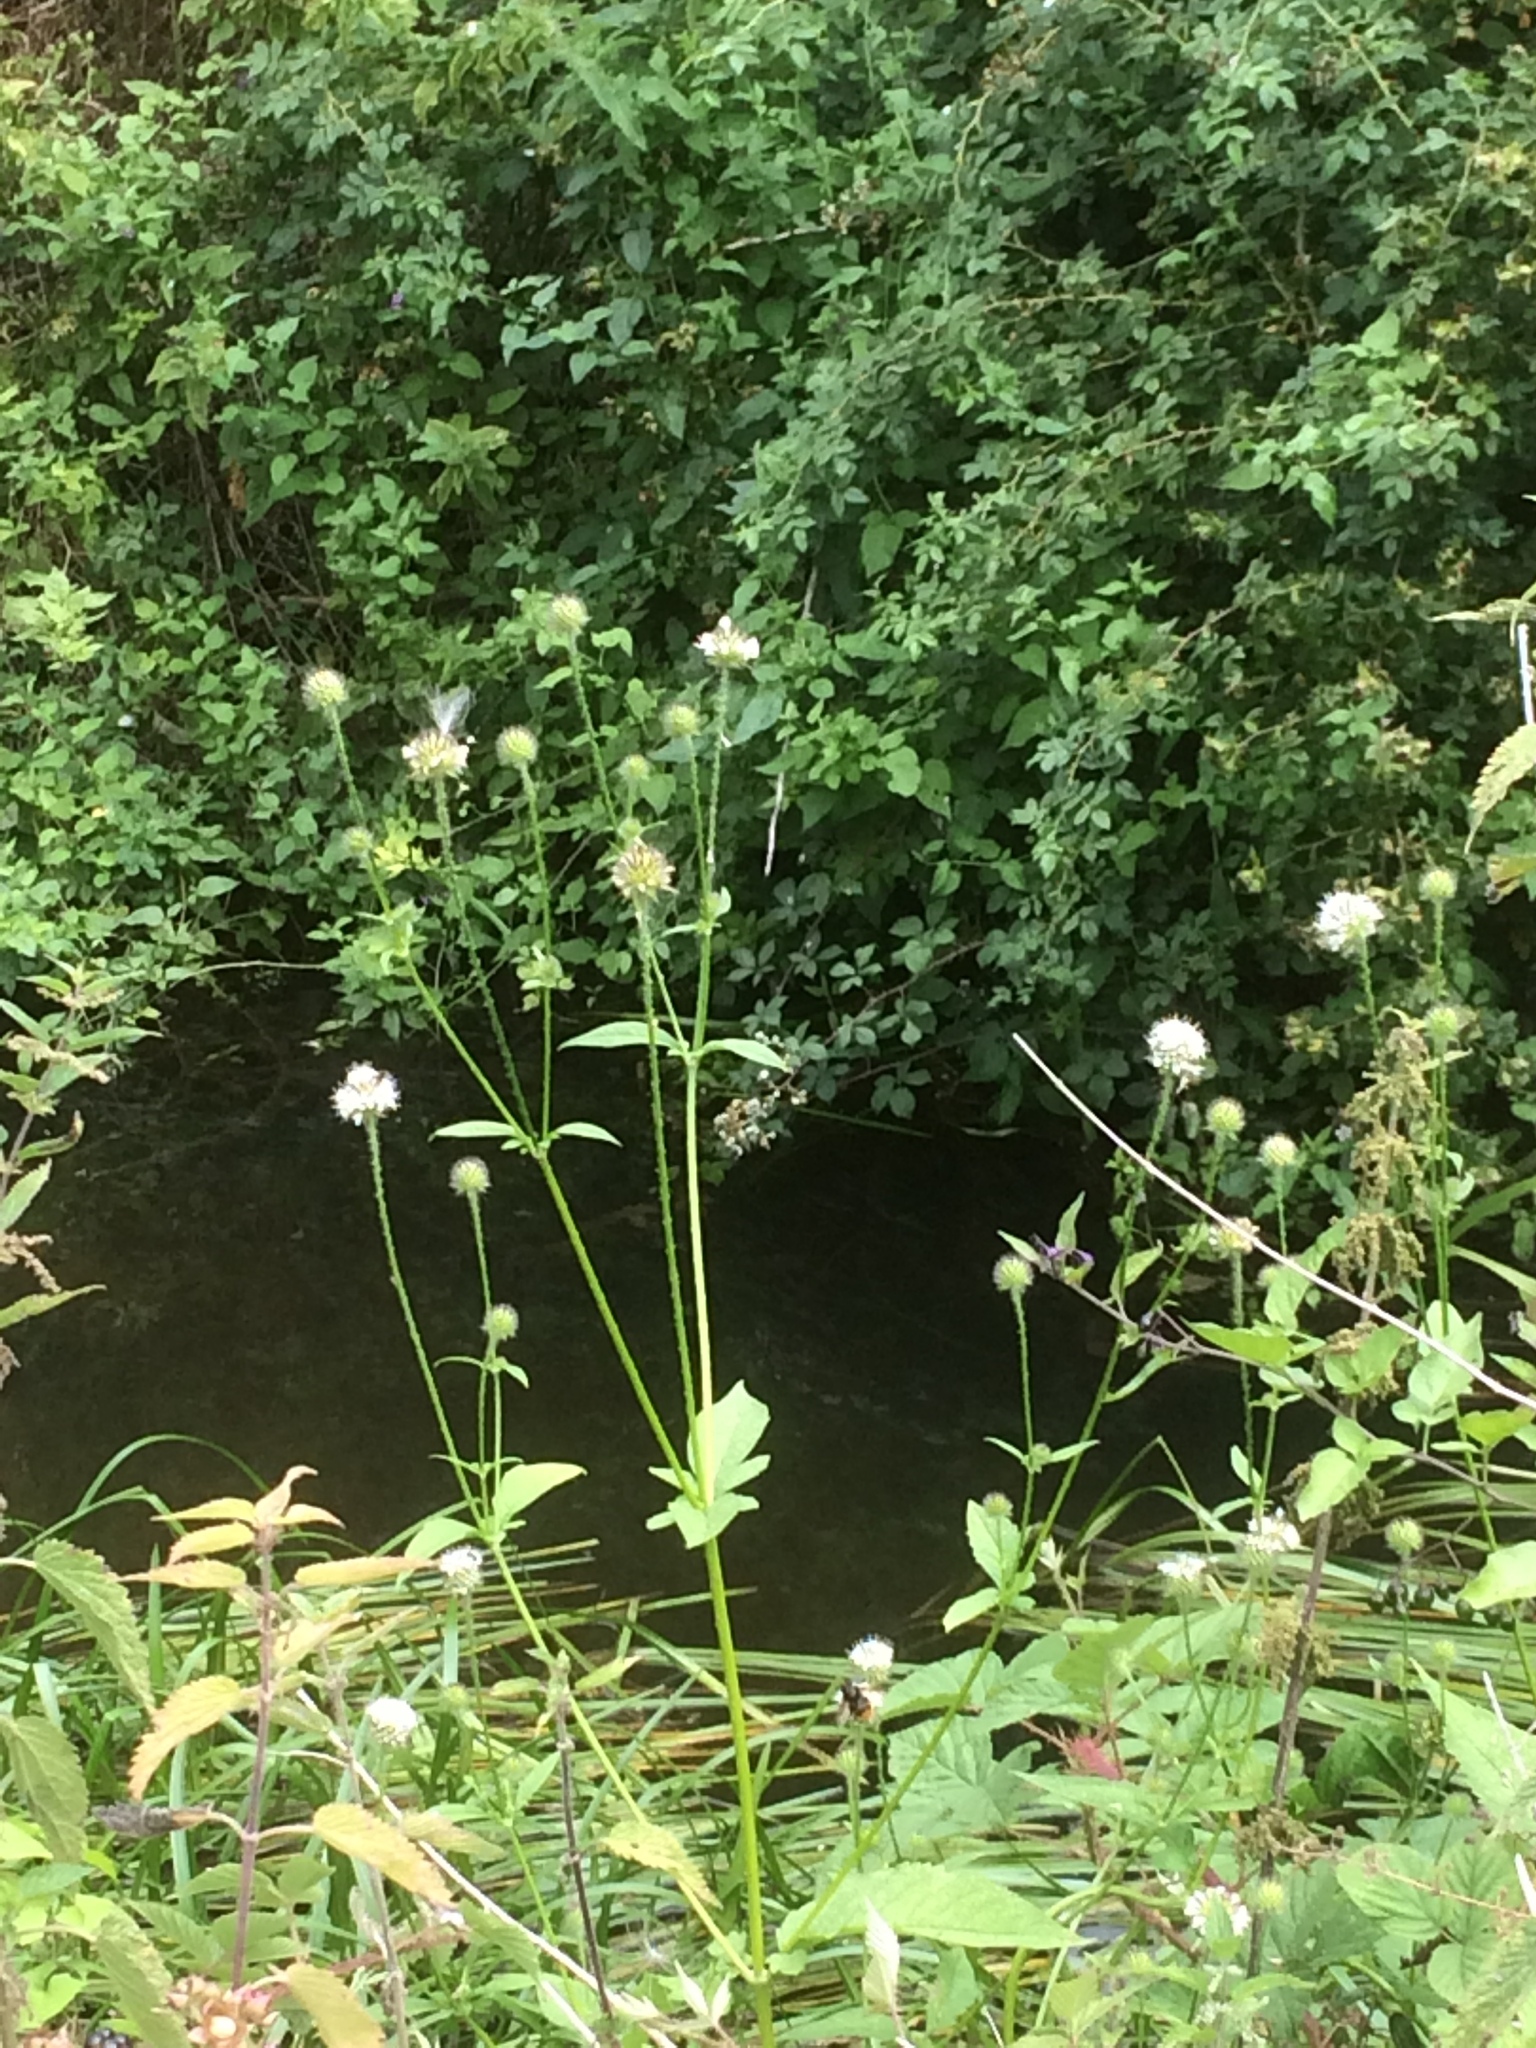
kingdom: Plantae
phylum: Tracheophyta
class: Magnoliopsida
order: Dipsacales
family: Caprifoliaceae
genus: Dipsacus
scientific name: Dipsacus pilosus
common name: Small teasel
